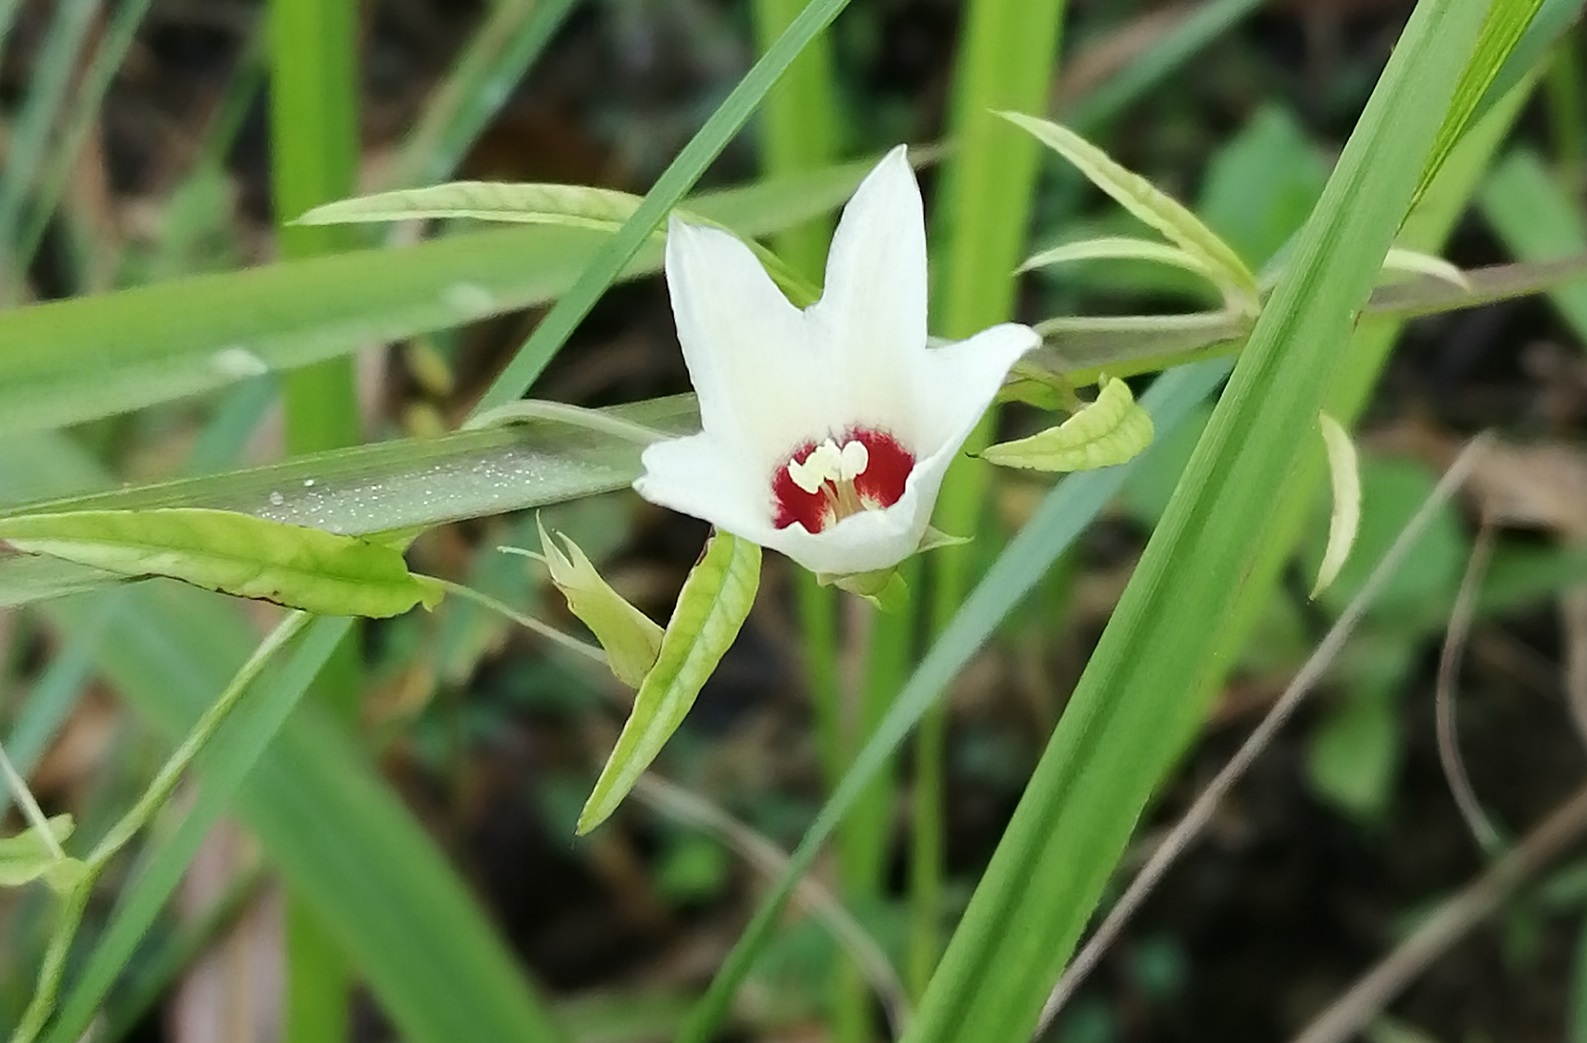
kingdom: Plantae
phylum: Tracheophyta
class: Magnoliopsida
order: Solanales
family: Convolvulaceae
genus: Xenostegia
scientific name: Xenostegia tridentata
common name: African morningvine
